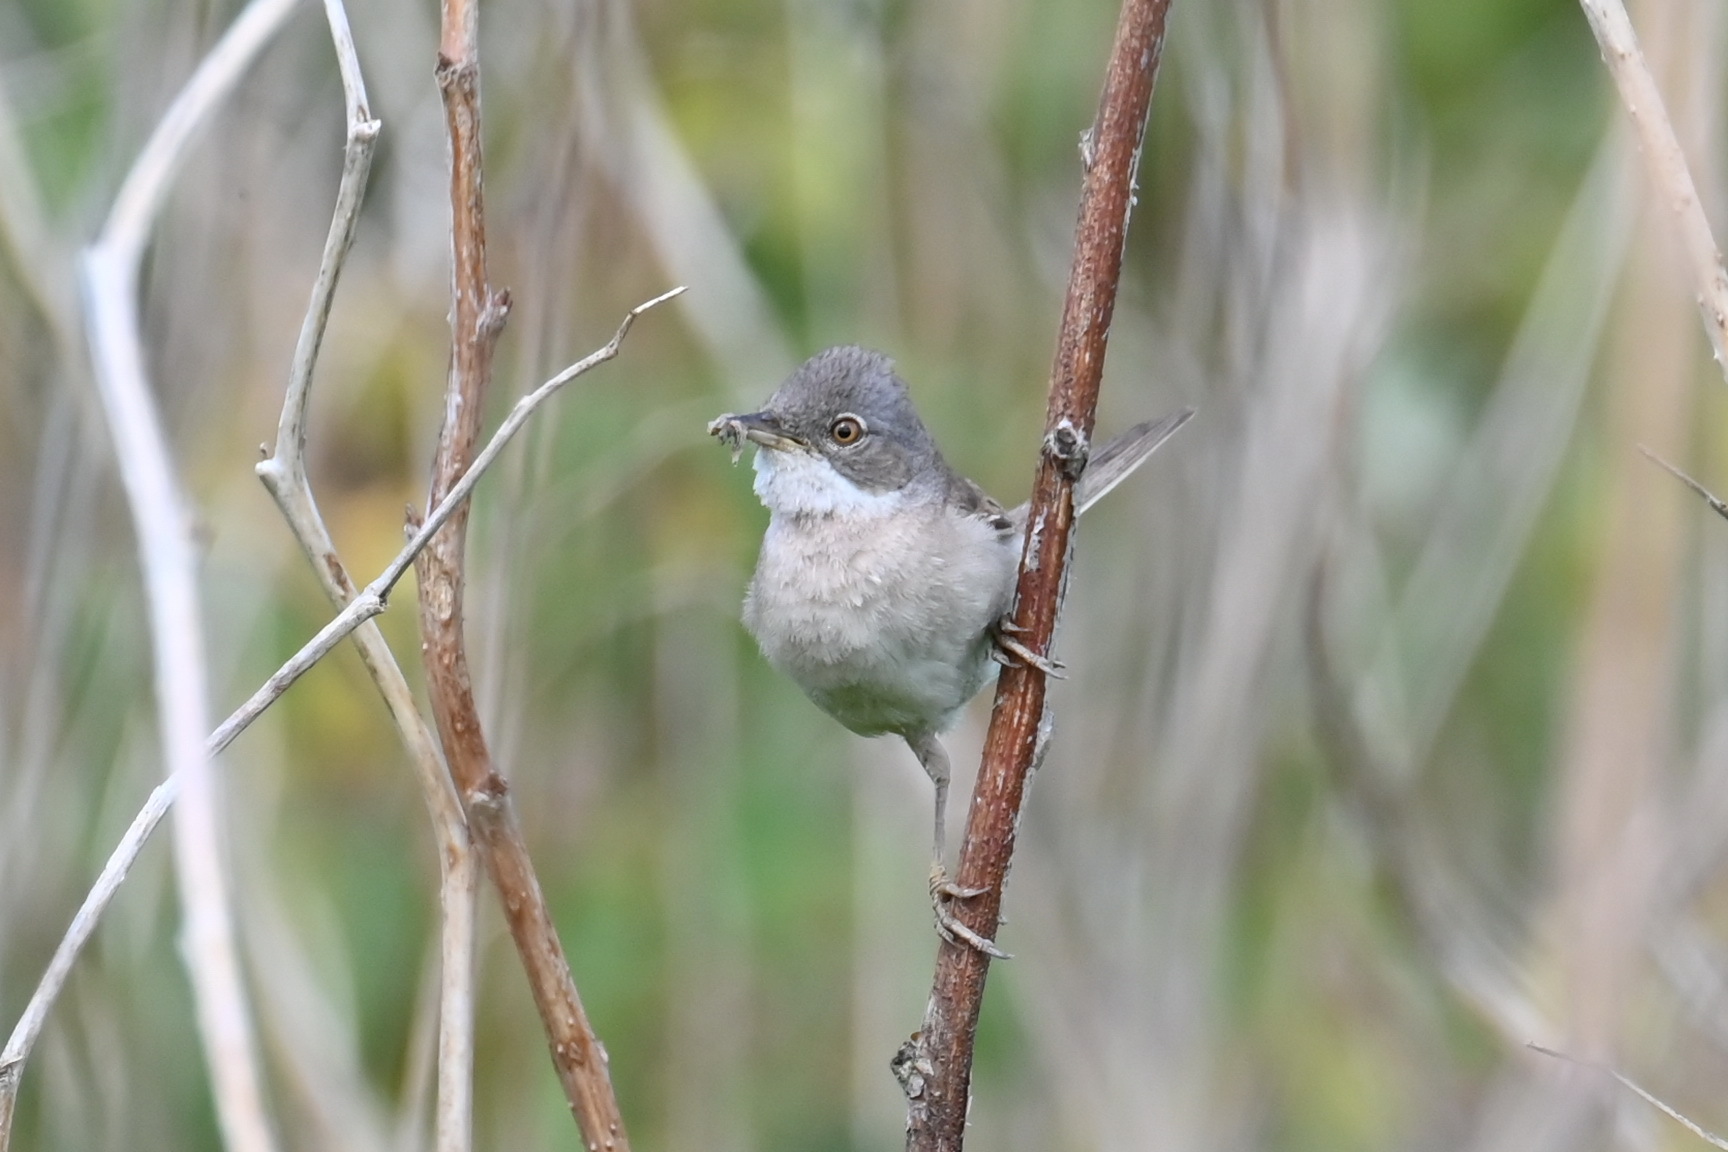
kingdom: Animalia
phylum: Chordata
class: Aves
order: Passeriformes
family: Sylviidae
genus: Sylvia
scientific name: Sylvia communis
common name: Common whitethroat
